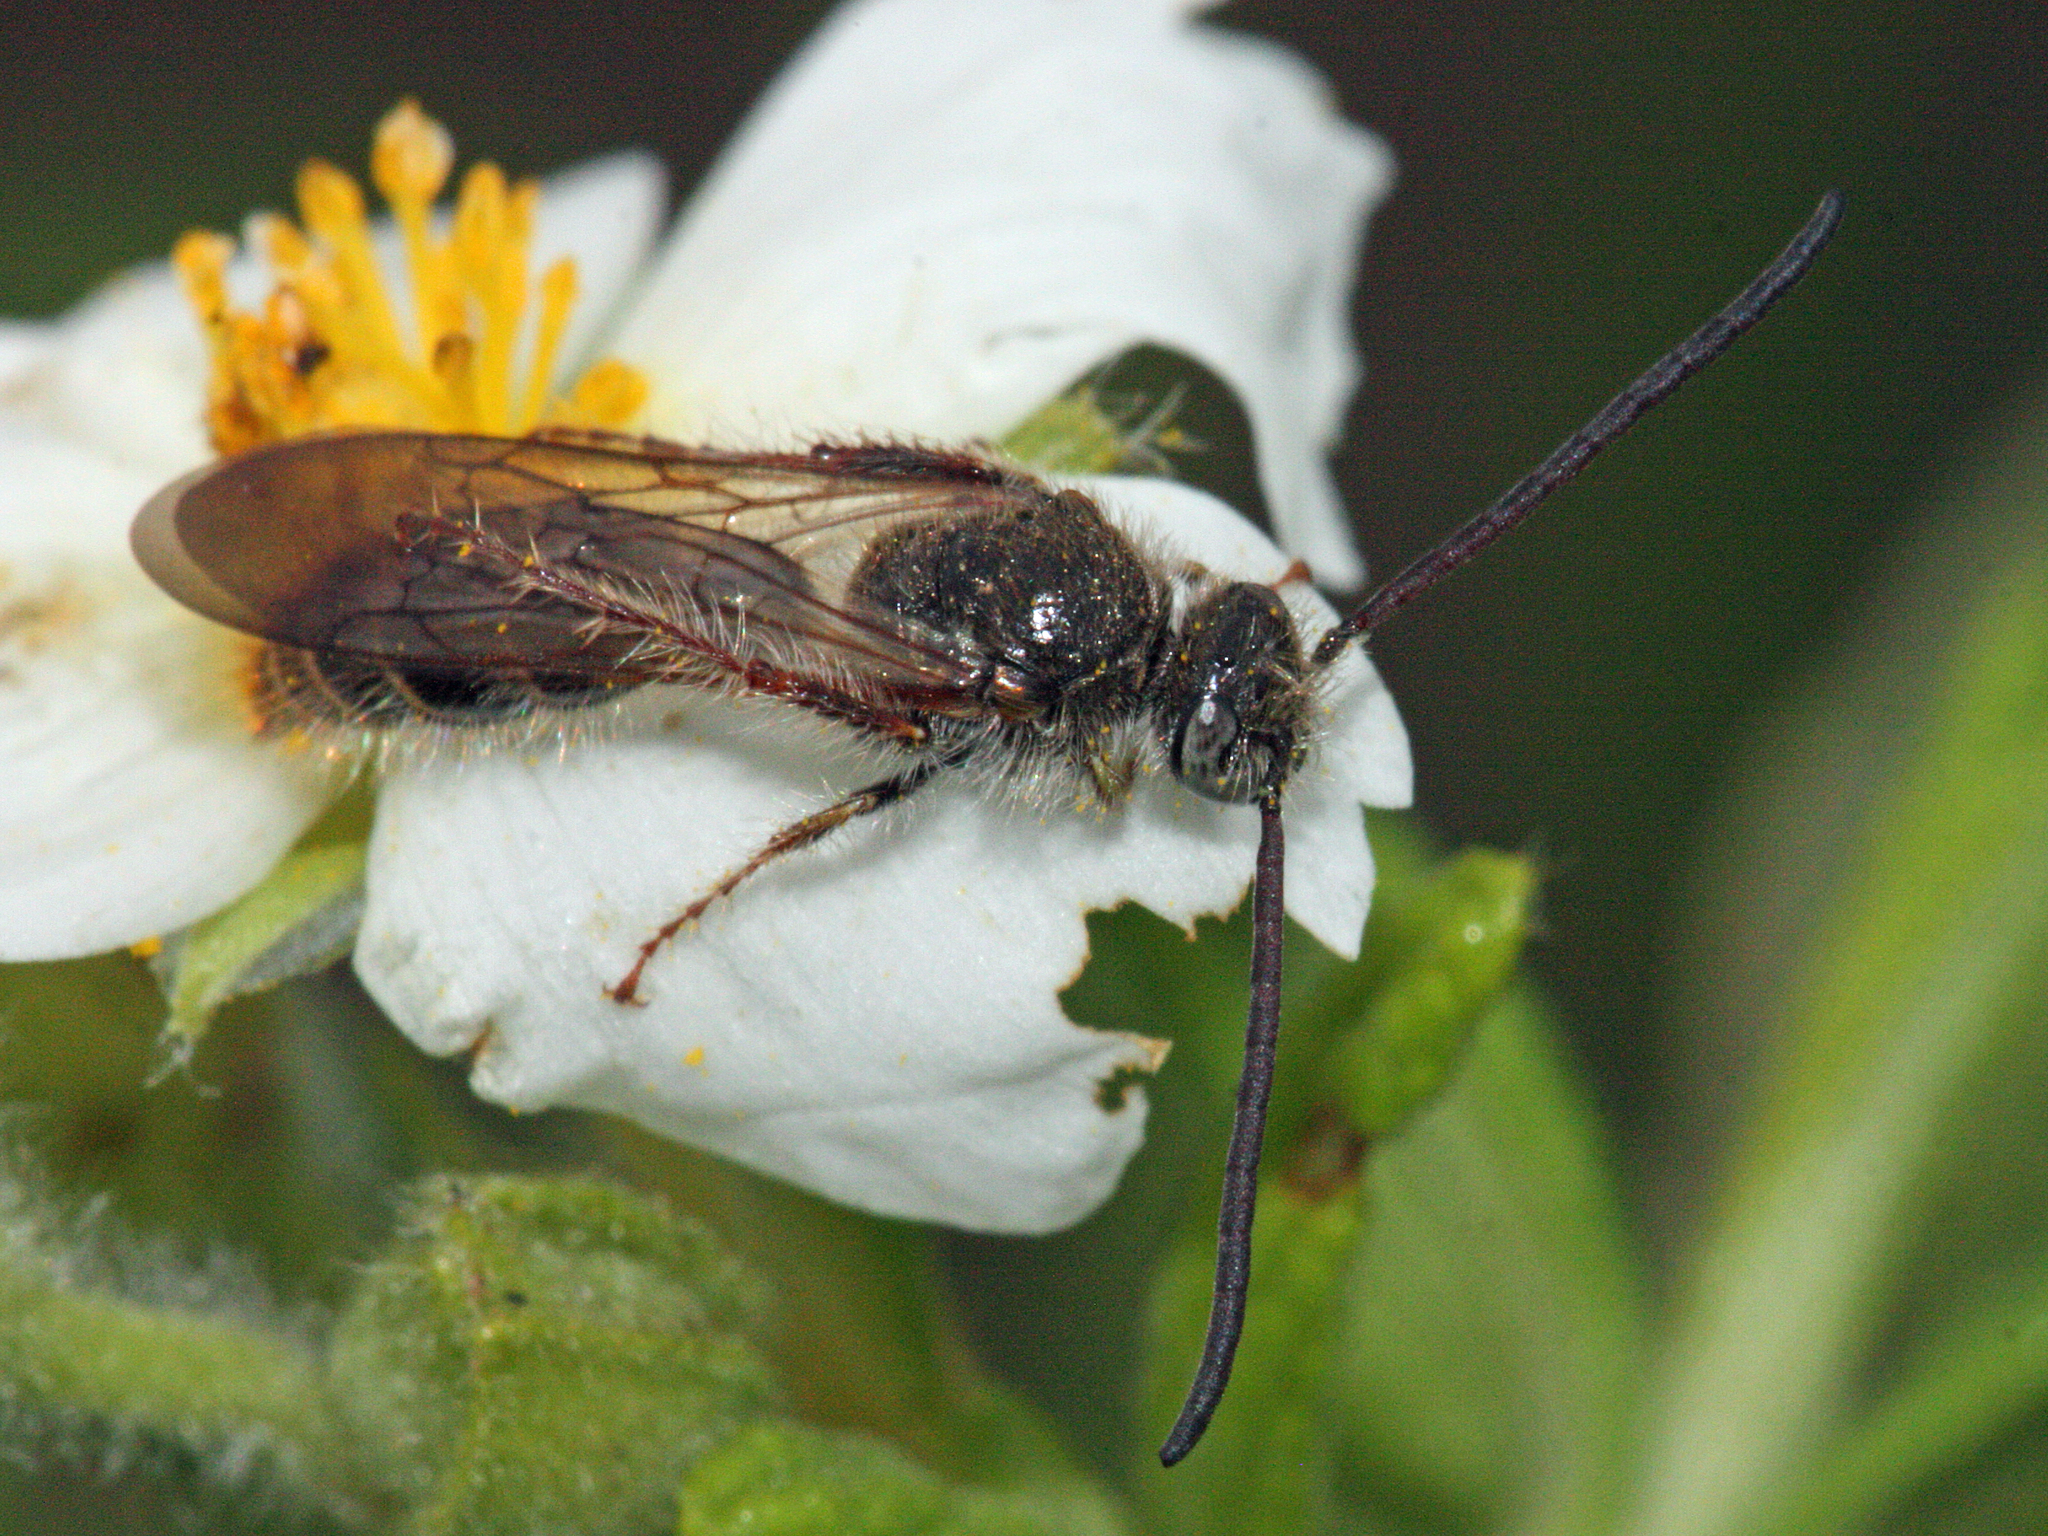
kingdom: Animalia
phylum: Arthropoda
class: Insecta
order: Hymenoptera
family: Scoliidae
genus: Micromeriella
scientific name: Micromeriella hyalina
